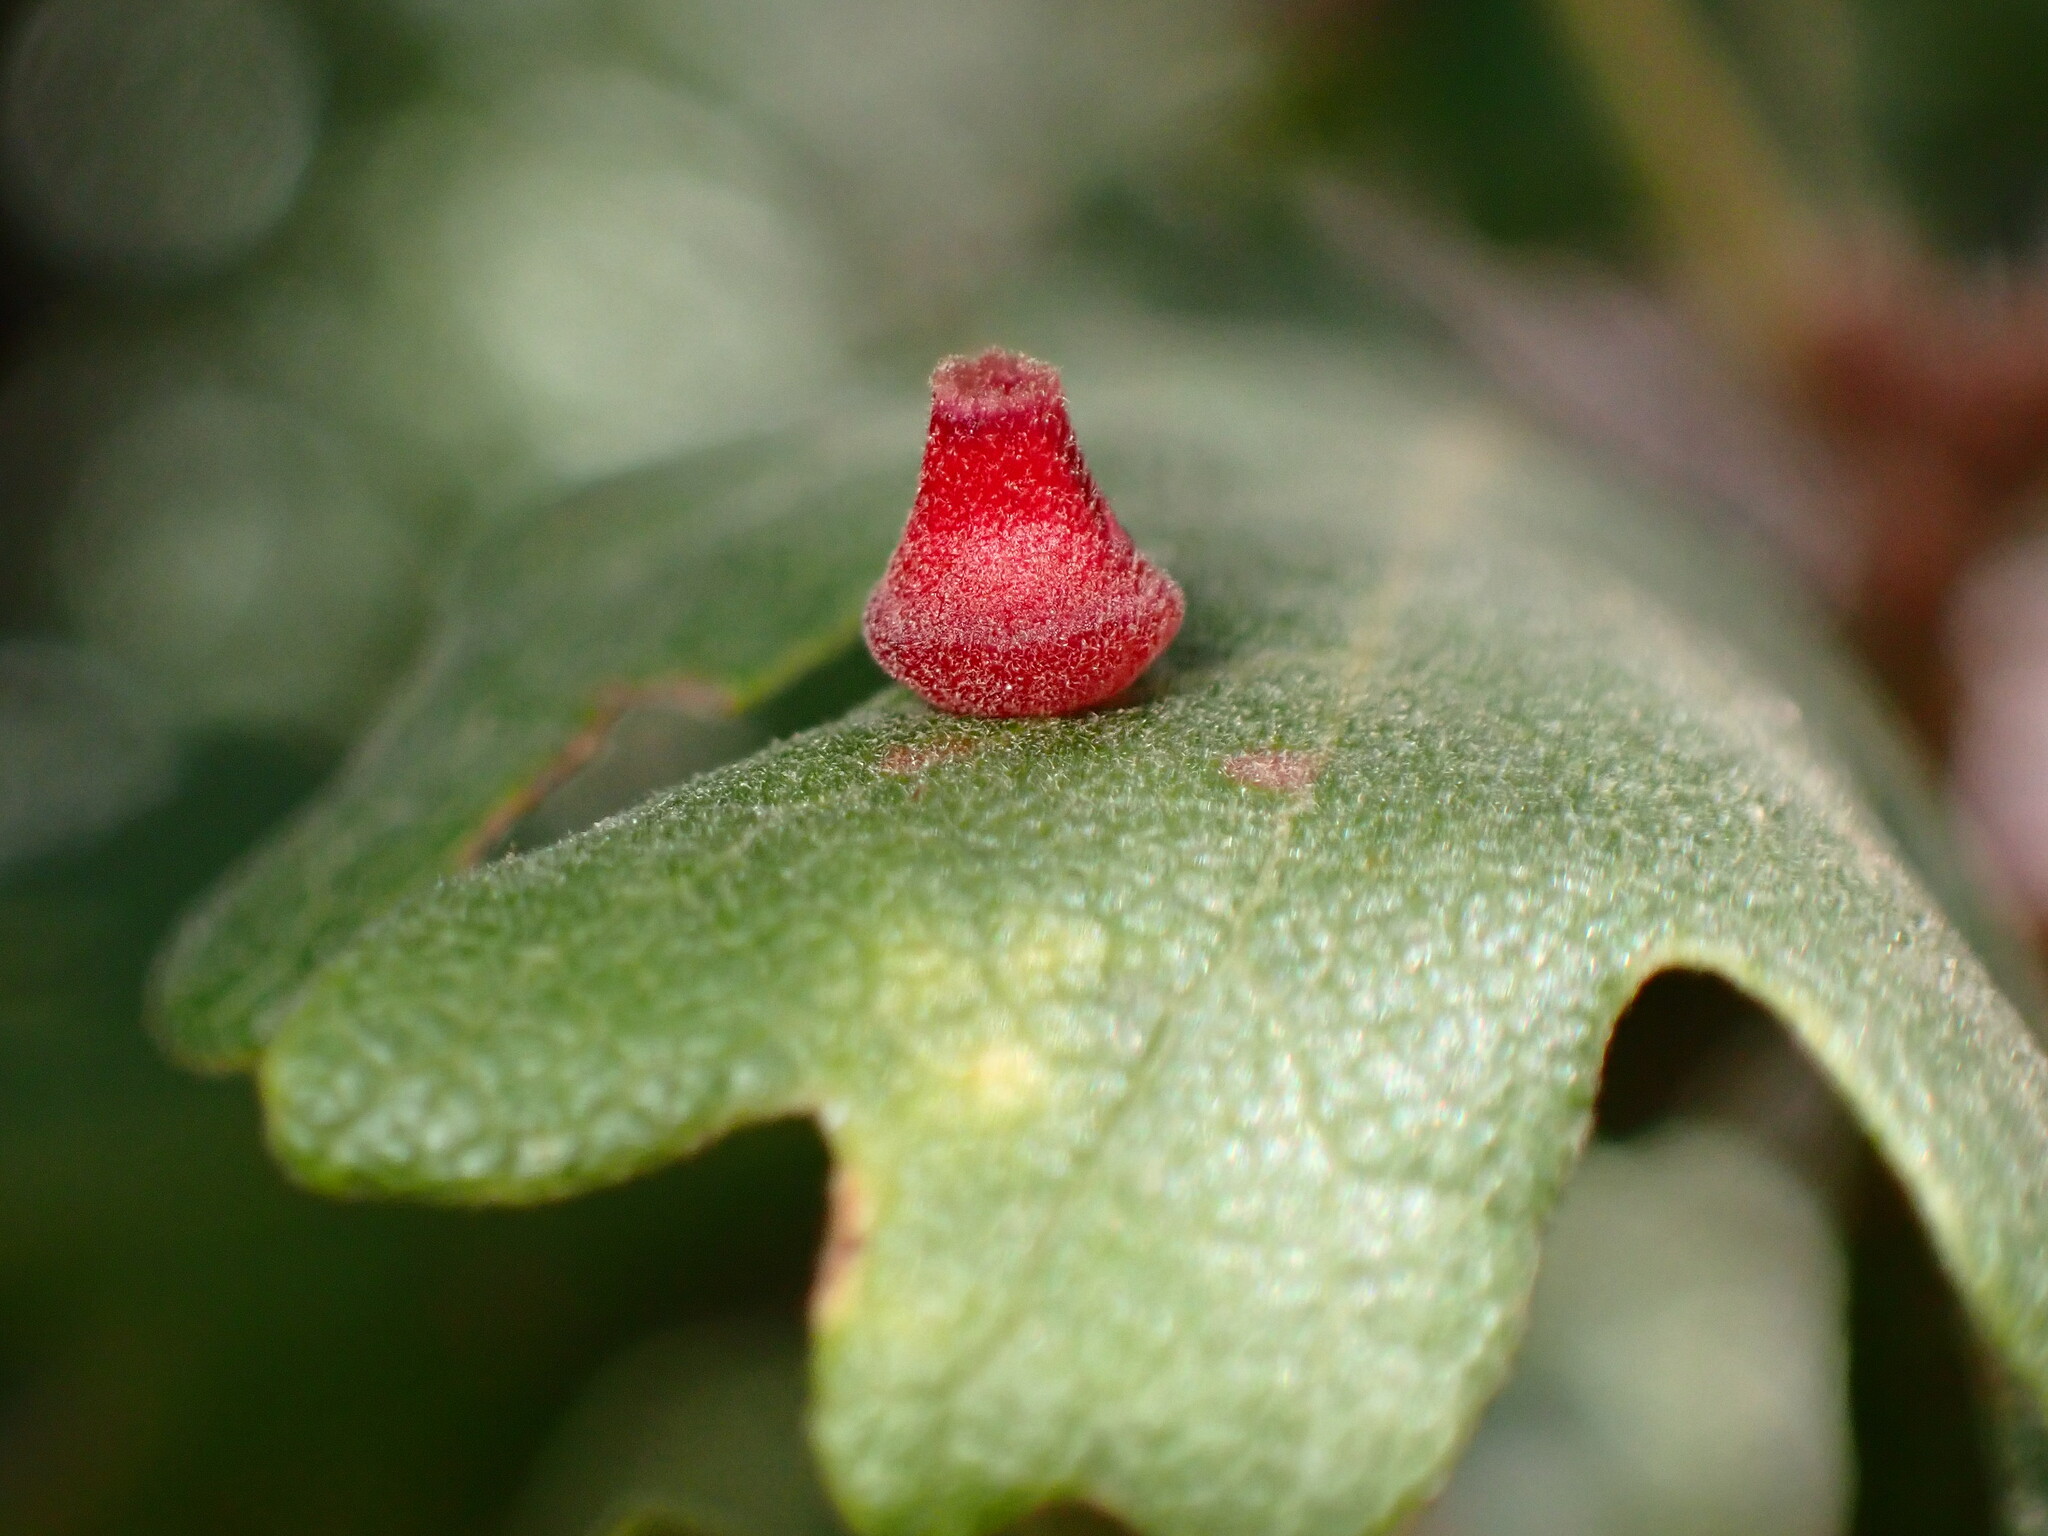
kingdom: Animalia
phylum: Arthropoda
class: Insecta
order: Hymenoptera
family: Cynipidae
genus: Andricus
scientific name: Andricus
